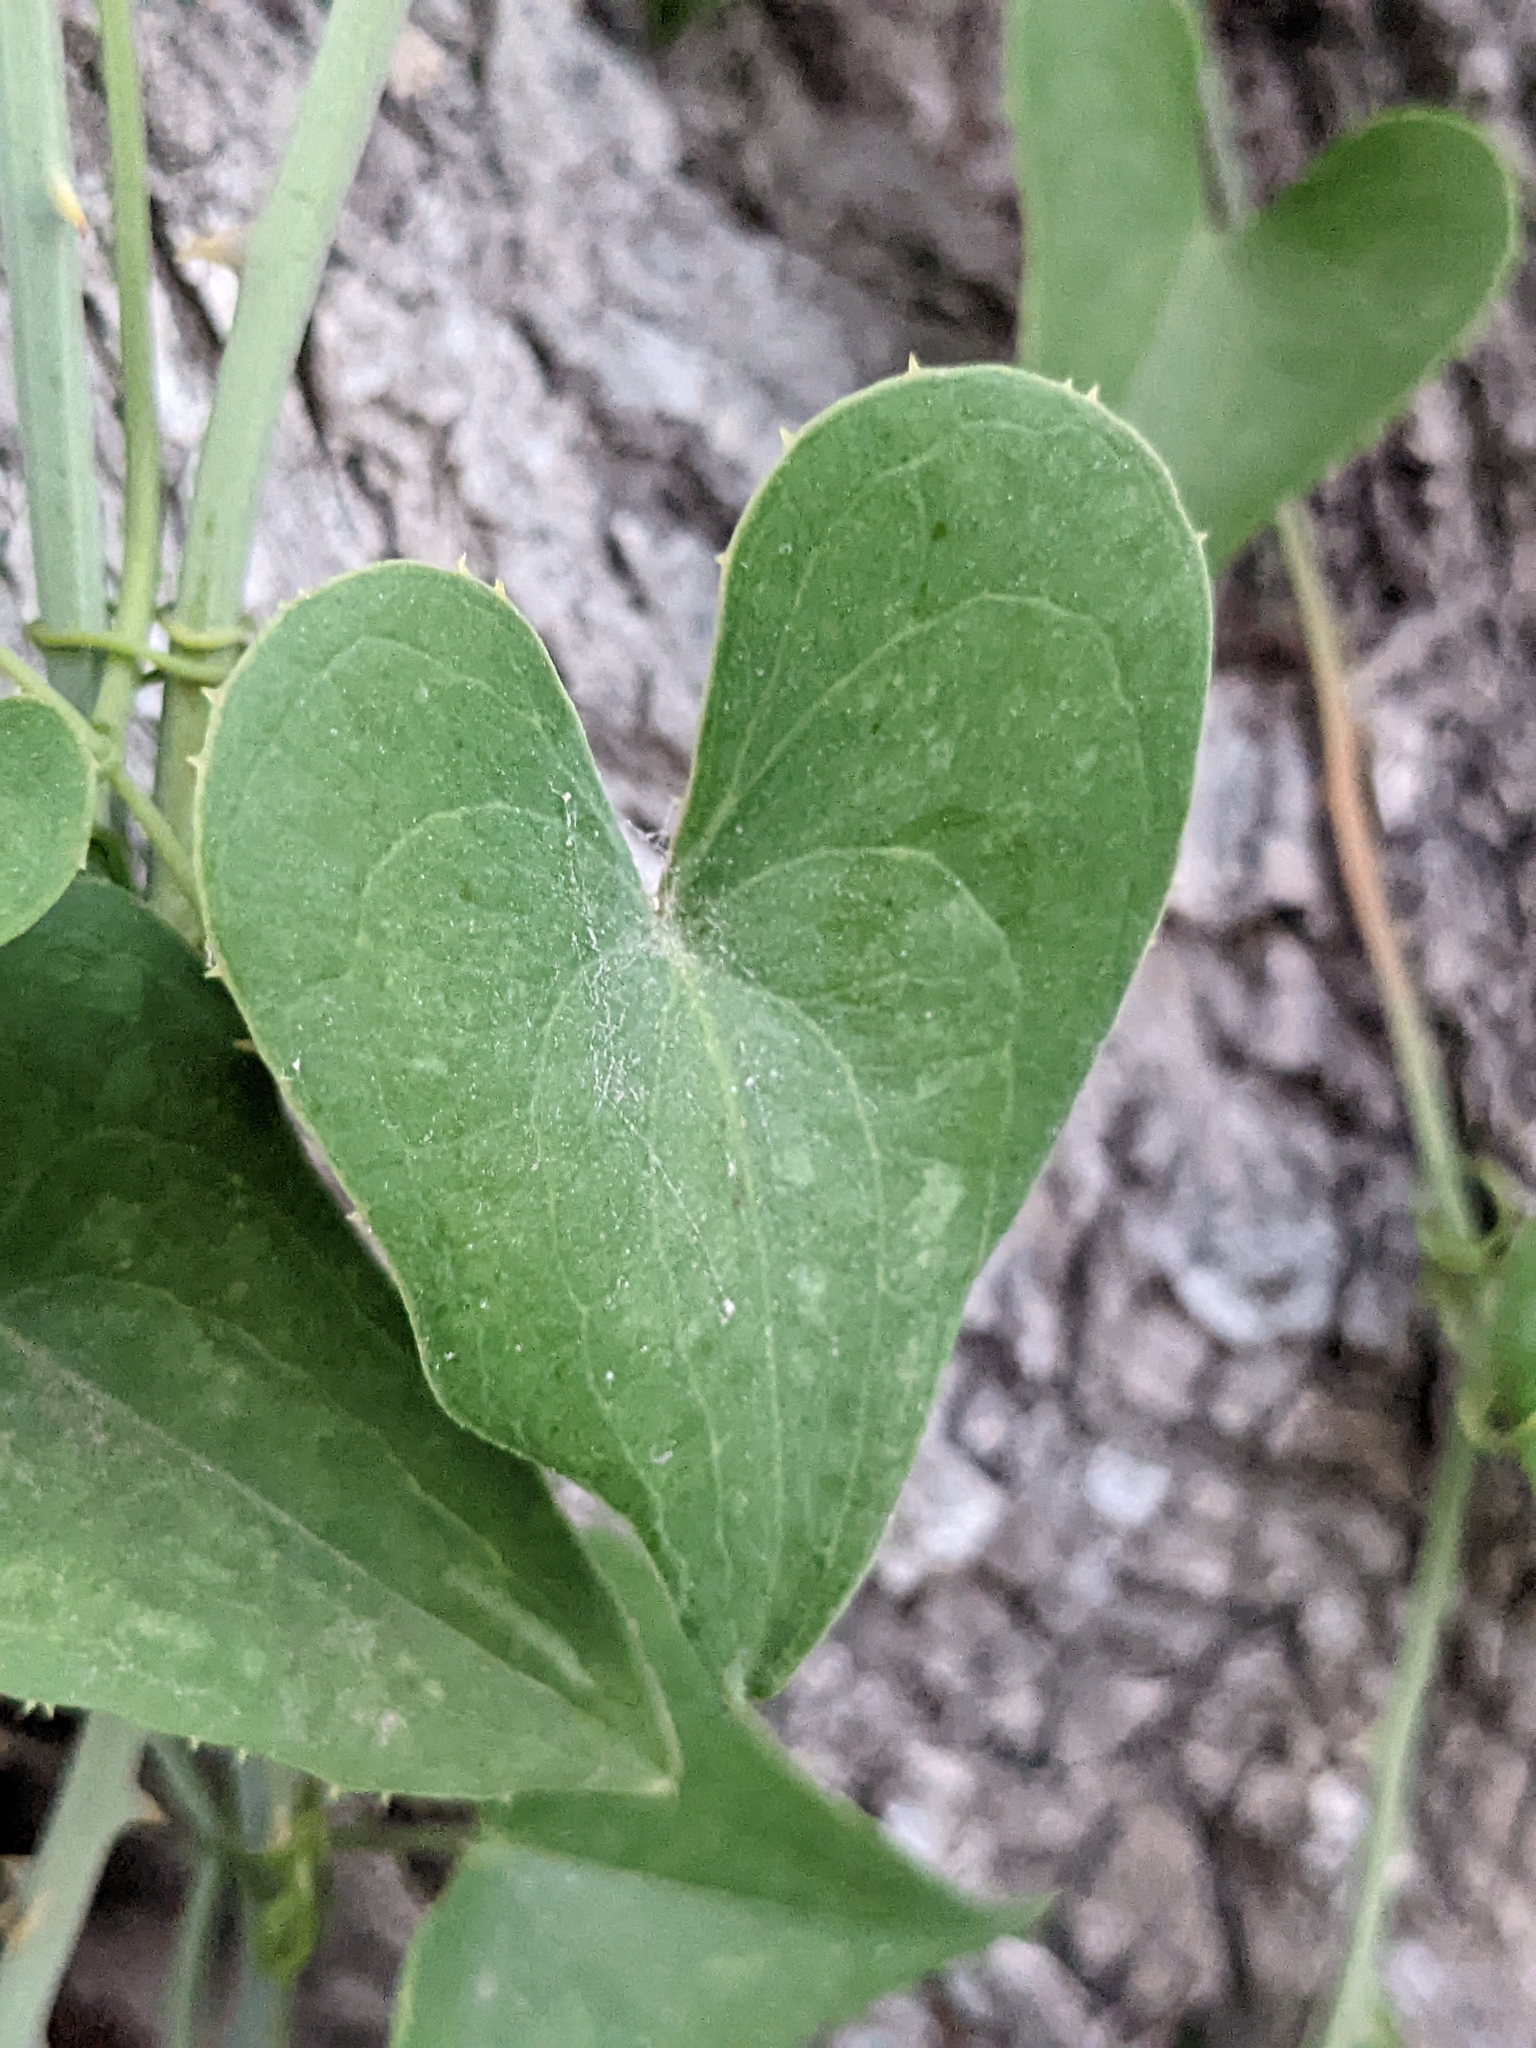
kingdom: Plantae
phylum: Tracheophyta
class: Liliopsida
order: Liliales
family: Smilacaceae
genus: Smilax
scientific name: Smilax aspera
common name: Common smilax
